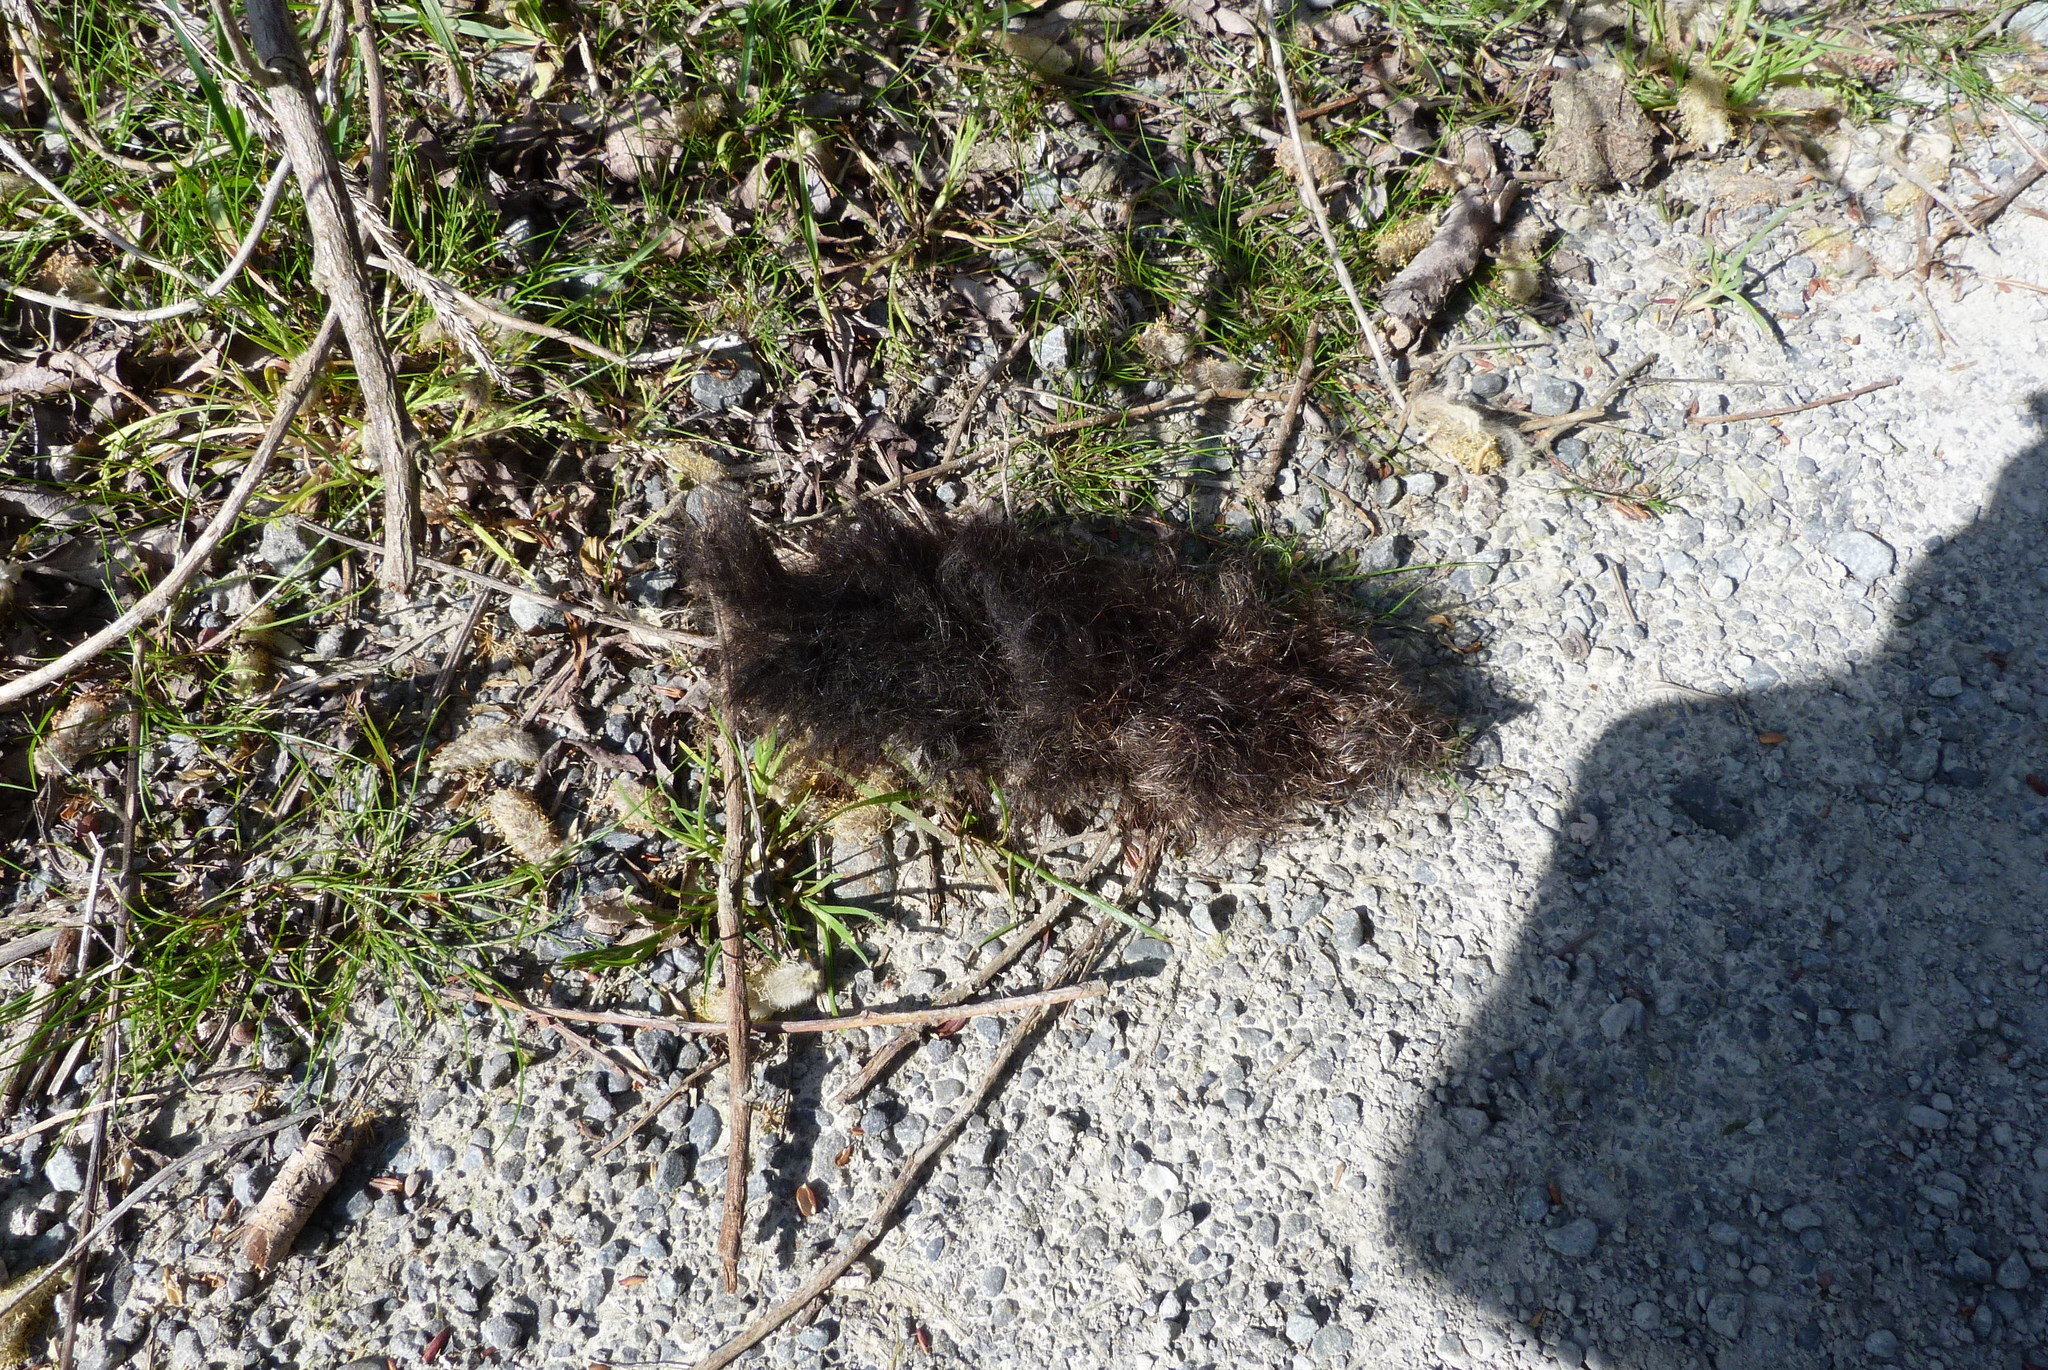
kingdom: Animalia
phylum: Chordata
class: Mammalia
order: Diprotodontia
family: Phalangeridae
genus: Trichosurus
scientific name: Trichosurus vulpecula
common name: Common brushtail
